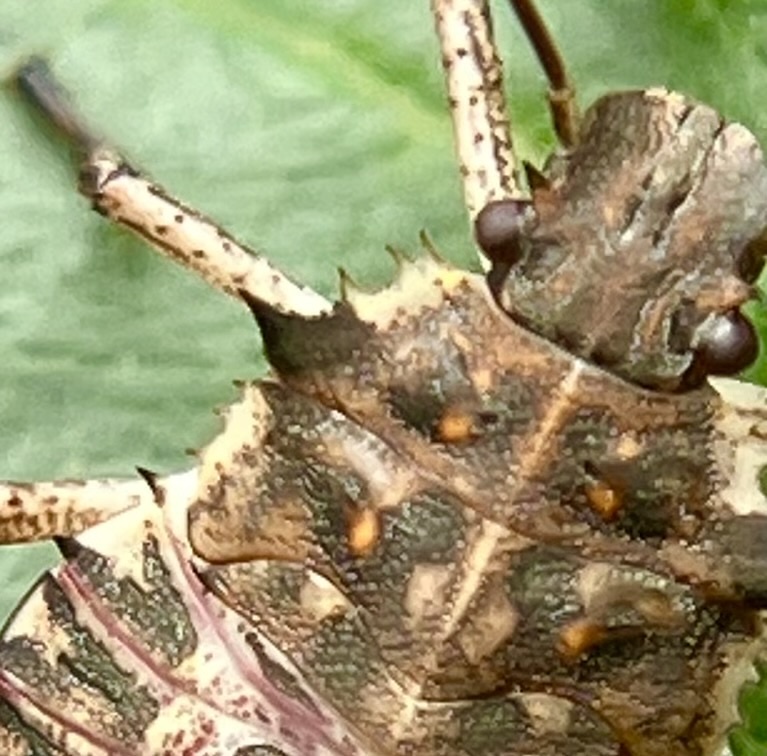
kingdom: Animalia
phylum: Arthropoda
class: Insecta
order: Hemiptera
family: Pentatomidae
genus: Halyomorpha
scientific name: Halyomorpha halys
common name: Brown marmorated stink bug
